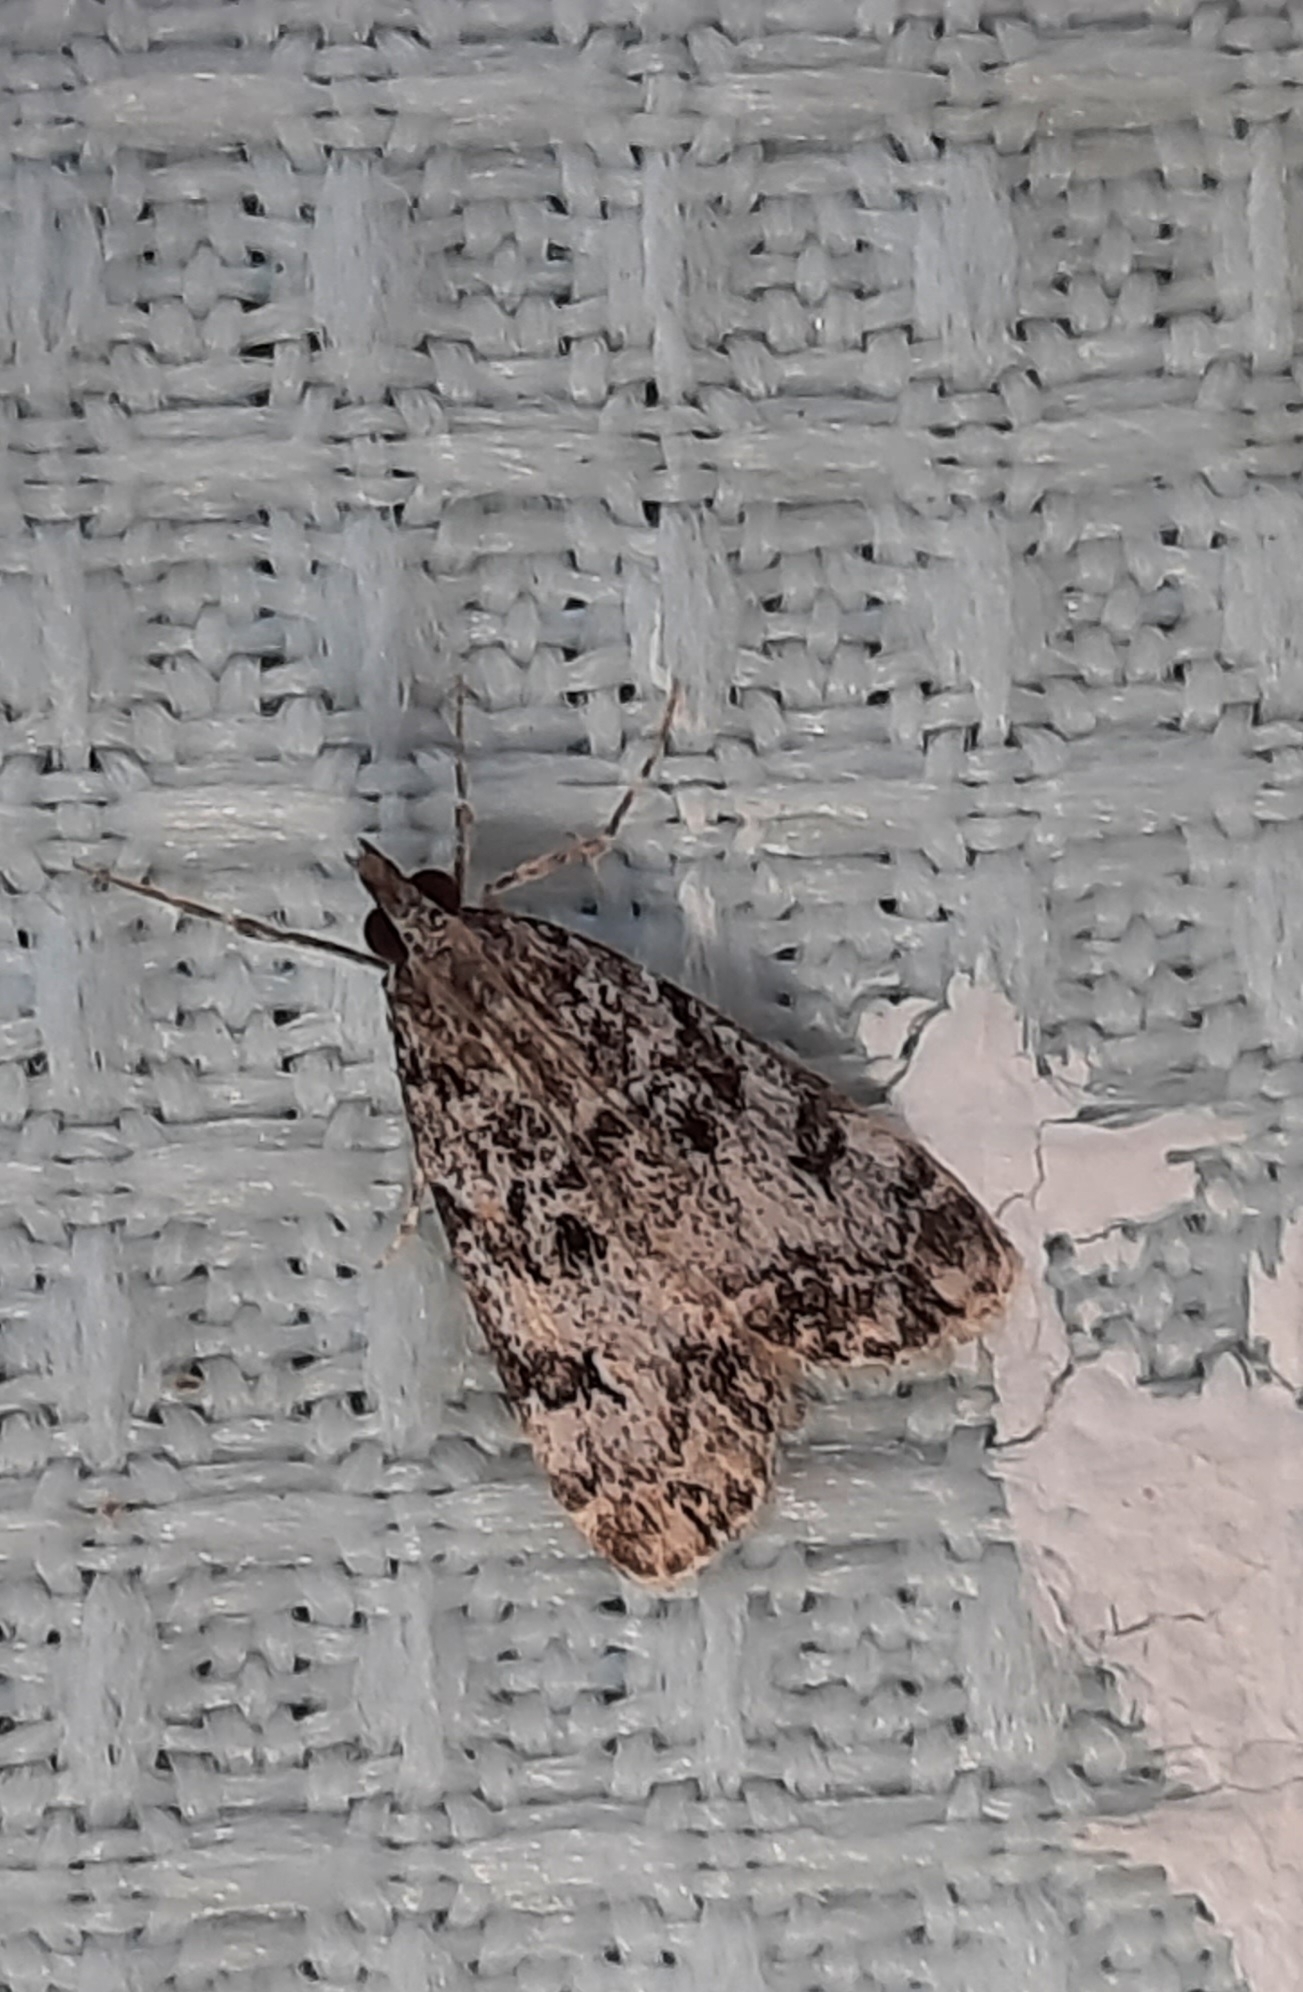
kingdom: Animalia
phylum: Arthropoda
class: Insecta
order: Lepidoptera
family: Crambidae
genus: Eudonia
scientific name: Eudonia lacustrata
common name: Little grey
